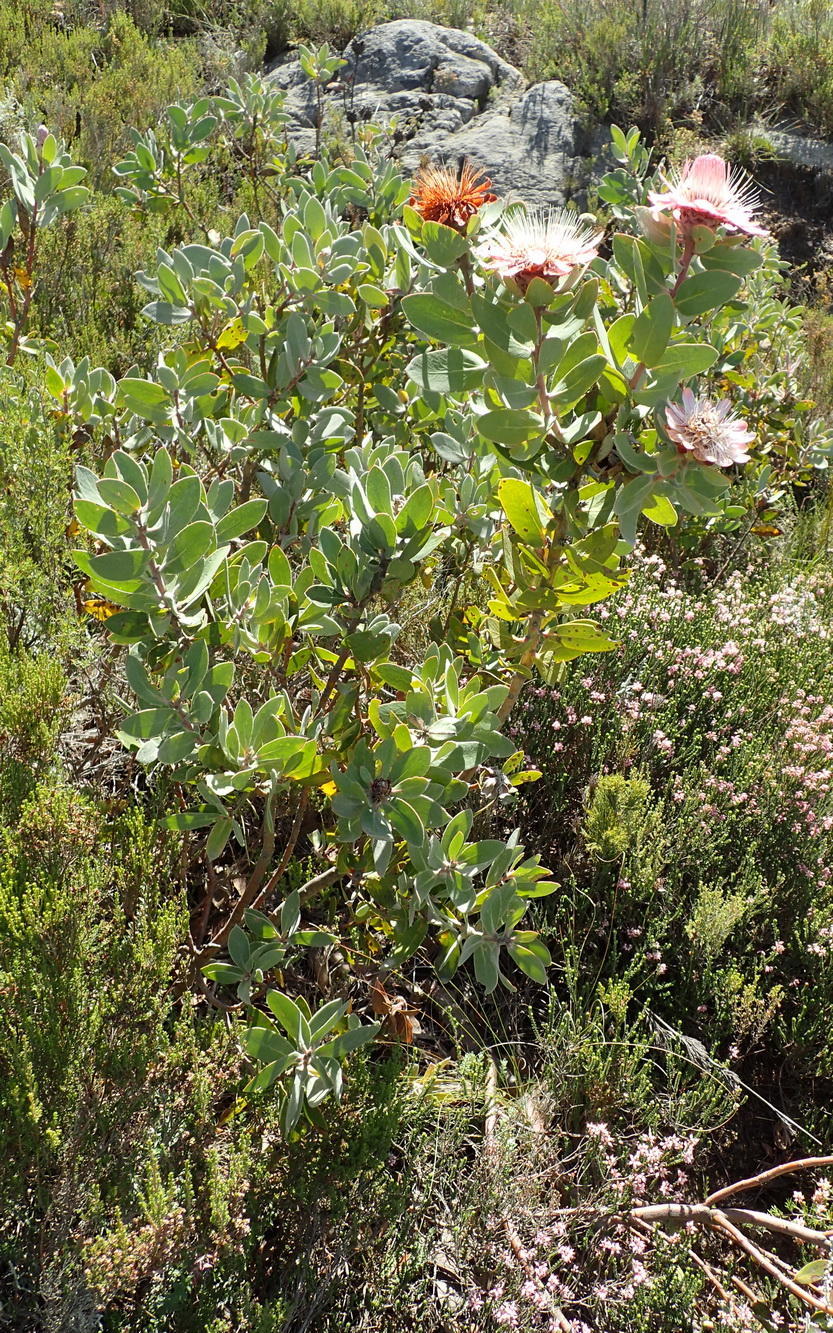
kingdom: Plantae
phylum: Tracheophyta
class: Magnoliopsida
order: Proteales
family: Proteaceae
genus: Protea
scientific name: Protea punctata
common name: Water sugarbush
